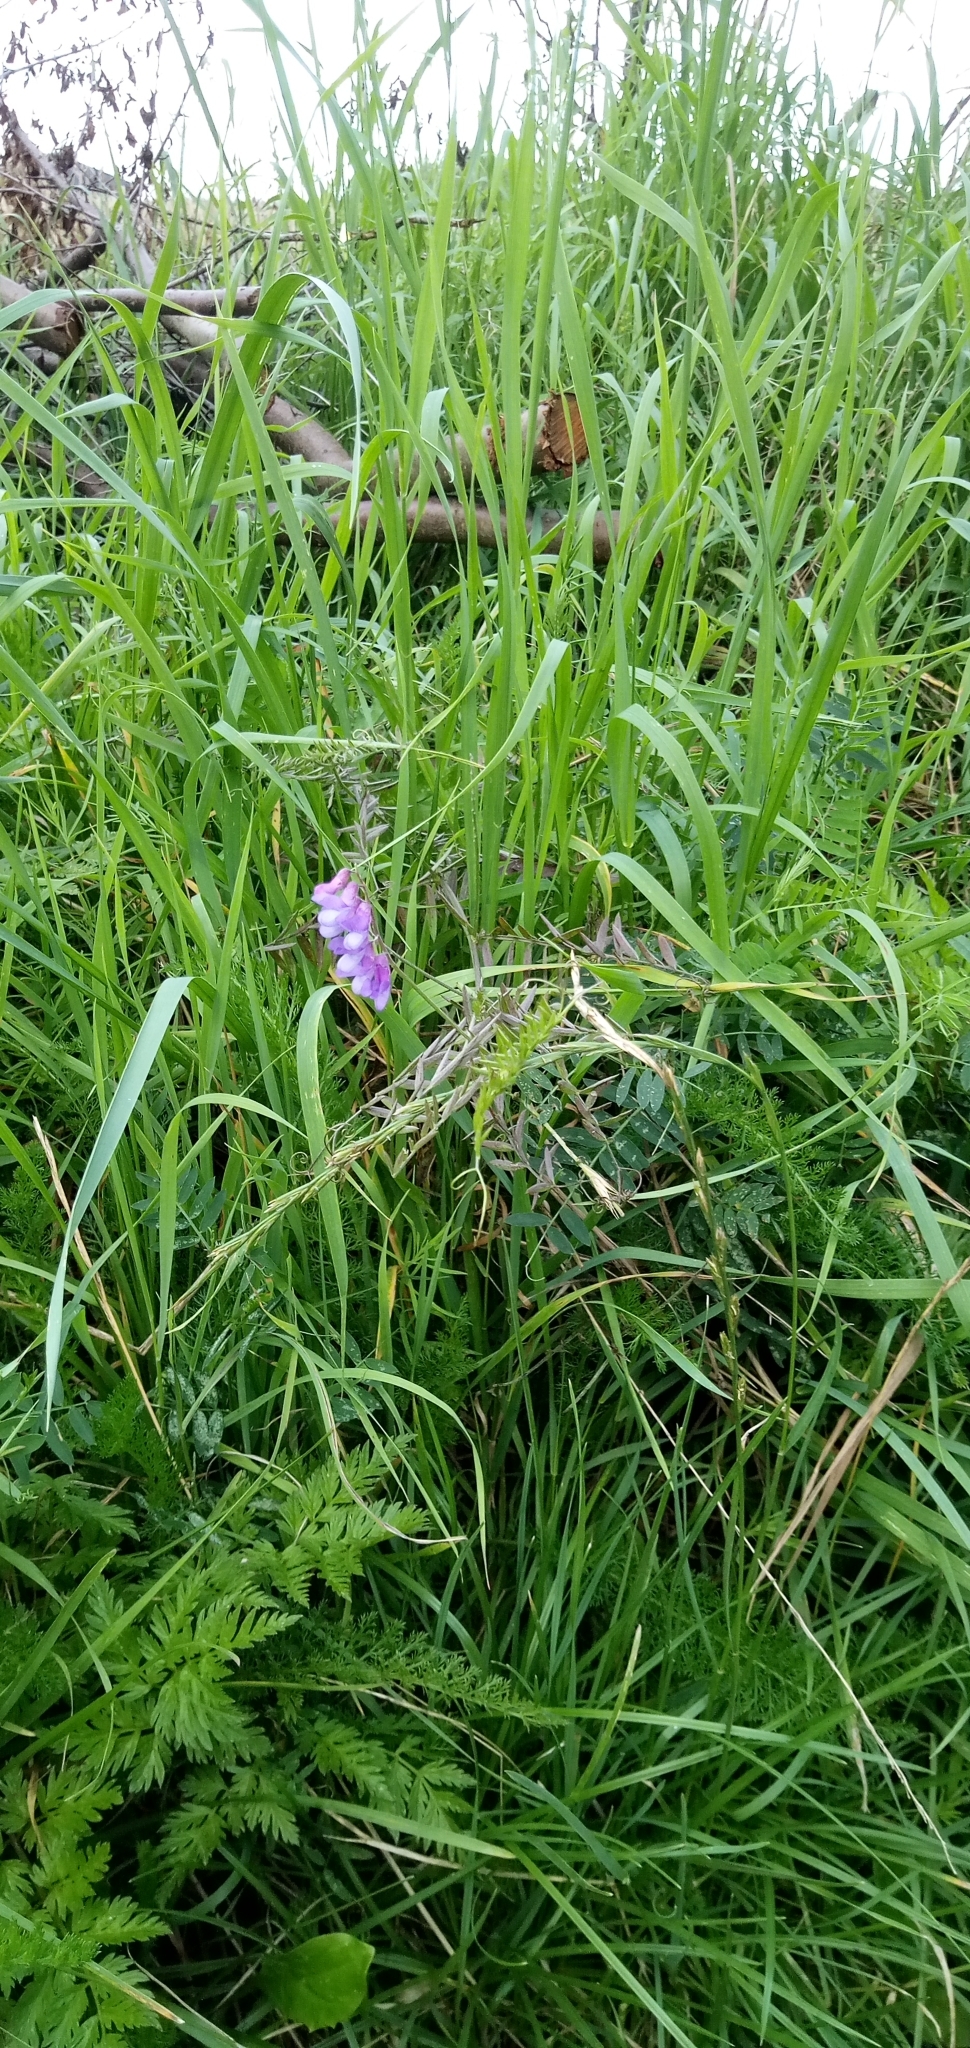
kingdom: Plantae
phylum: Tracheophyta
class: Magnoliopsida
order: Fabales
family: Fabaceae
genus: Vicia
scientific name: Vicia cracca
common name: Bird vetch
